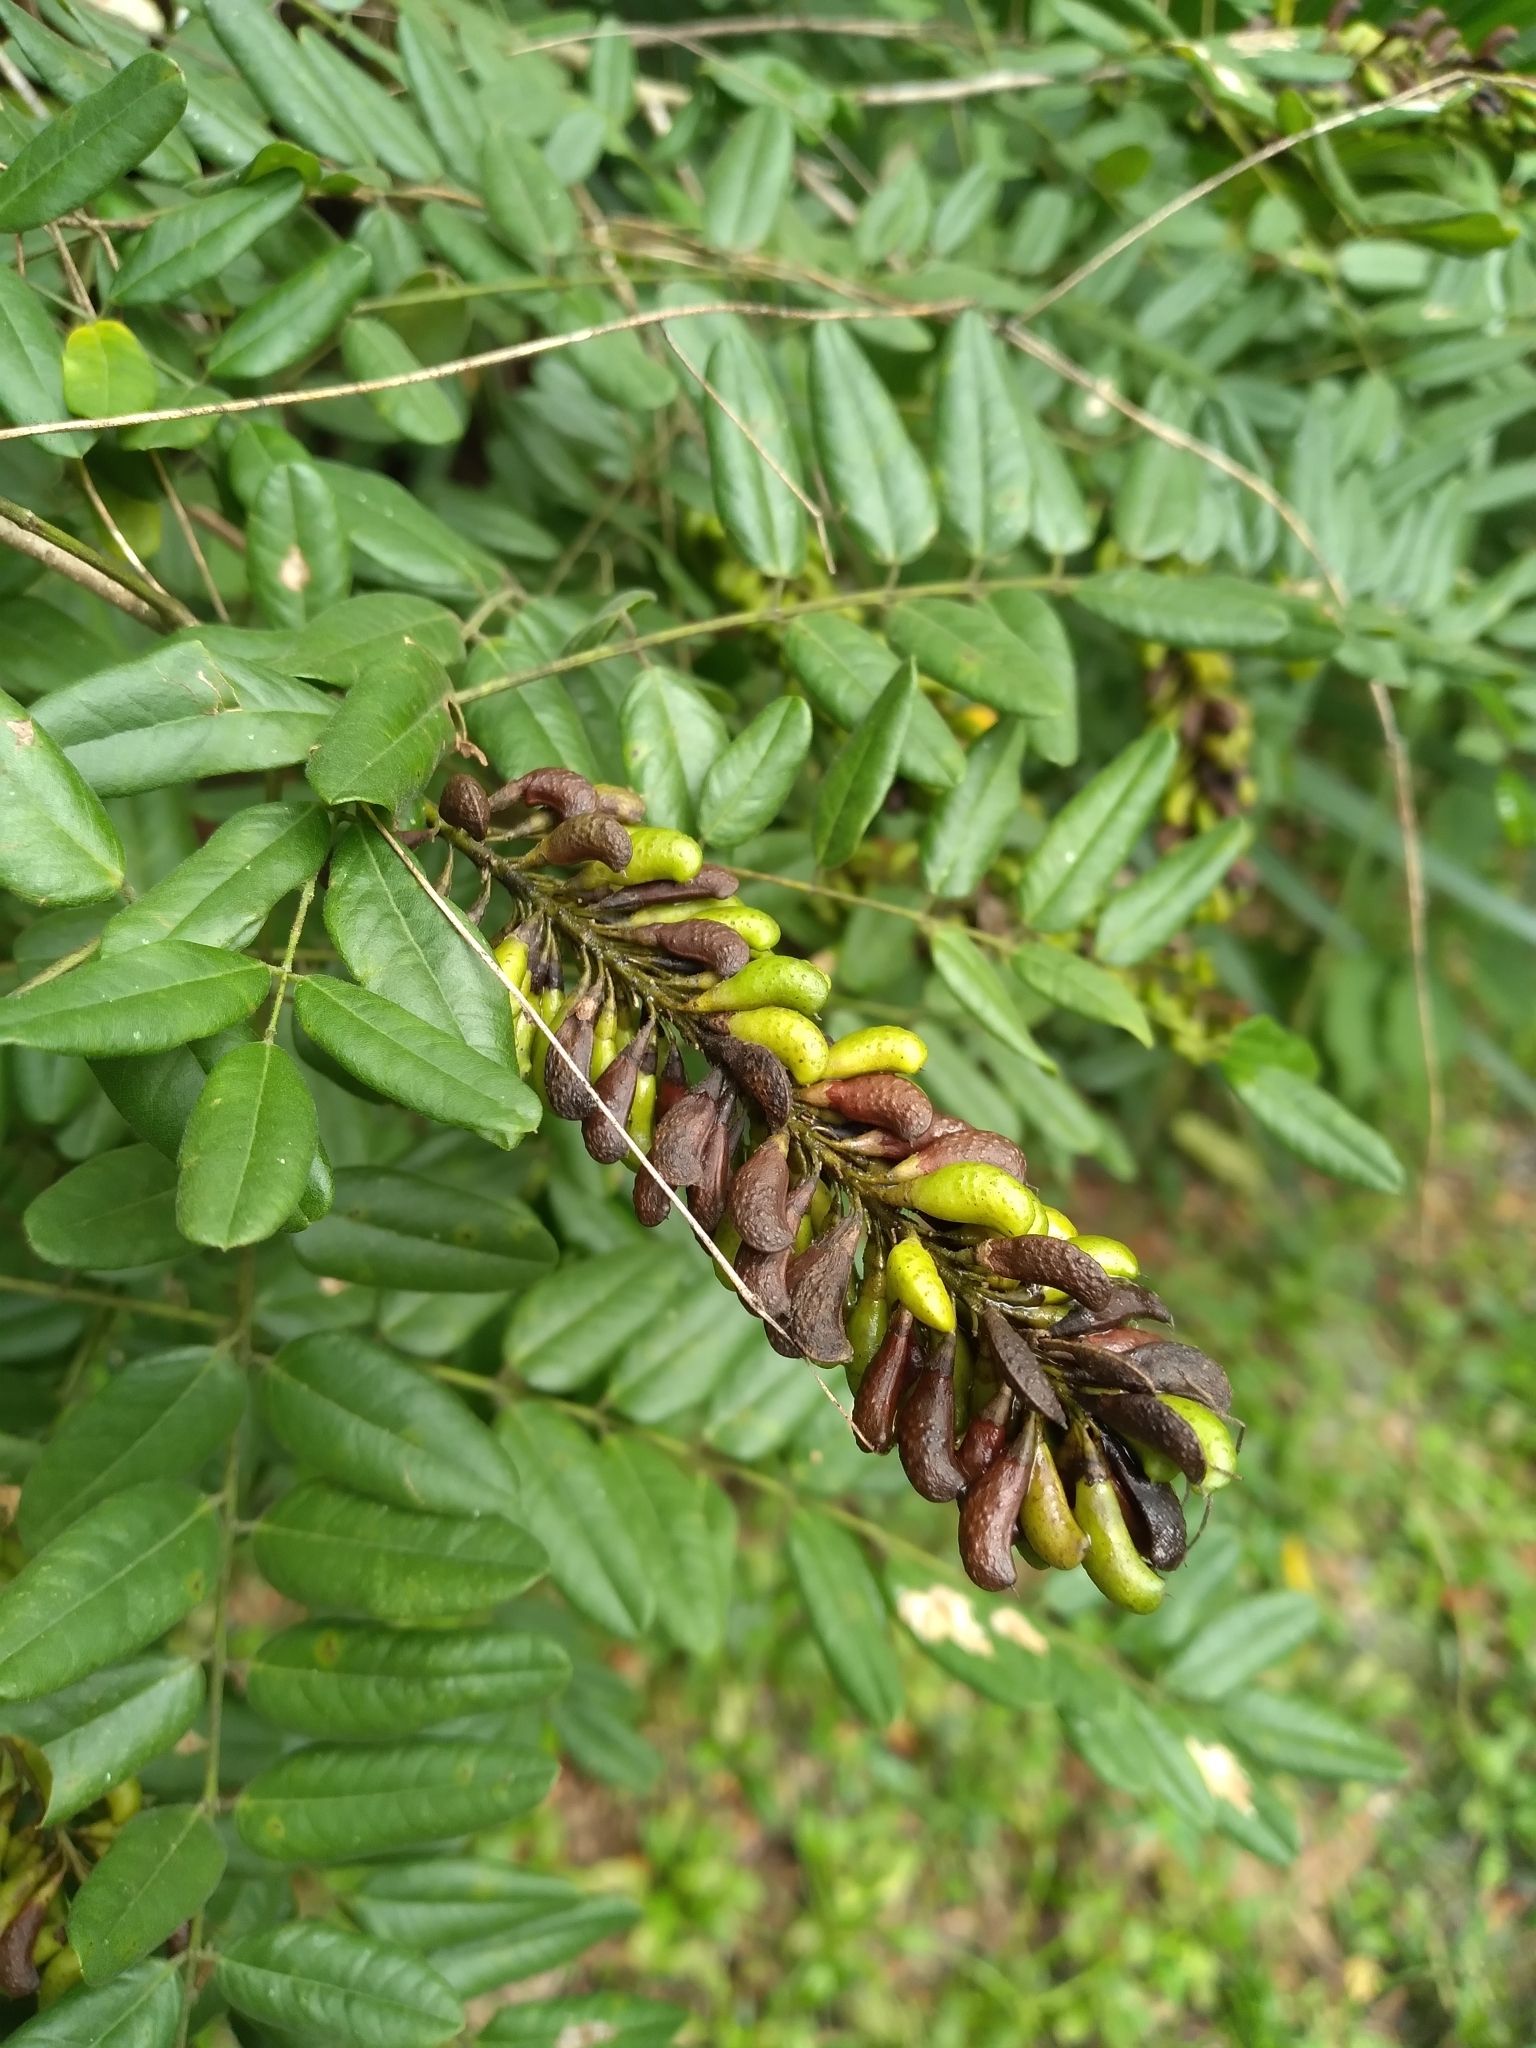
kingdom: Plantae
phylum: Tracheophyta
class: Magnoliopsida
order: Fabales
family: Fabaceae
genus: Amorpha
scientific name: Amorpha fruticosa
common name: False indigo
